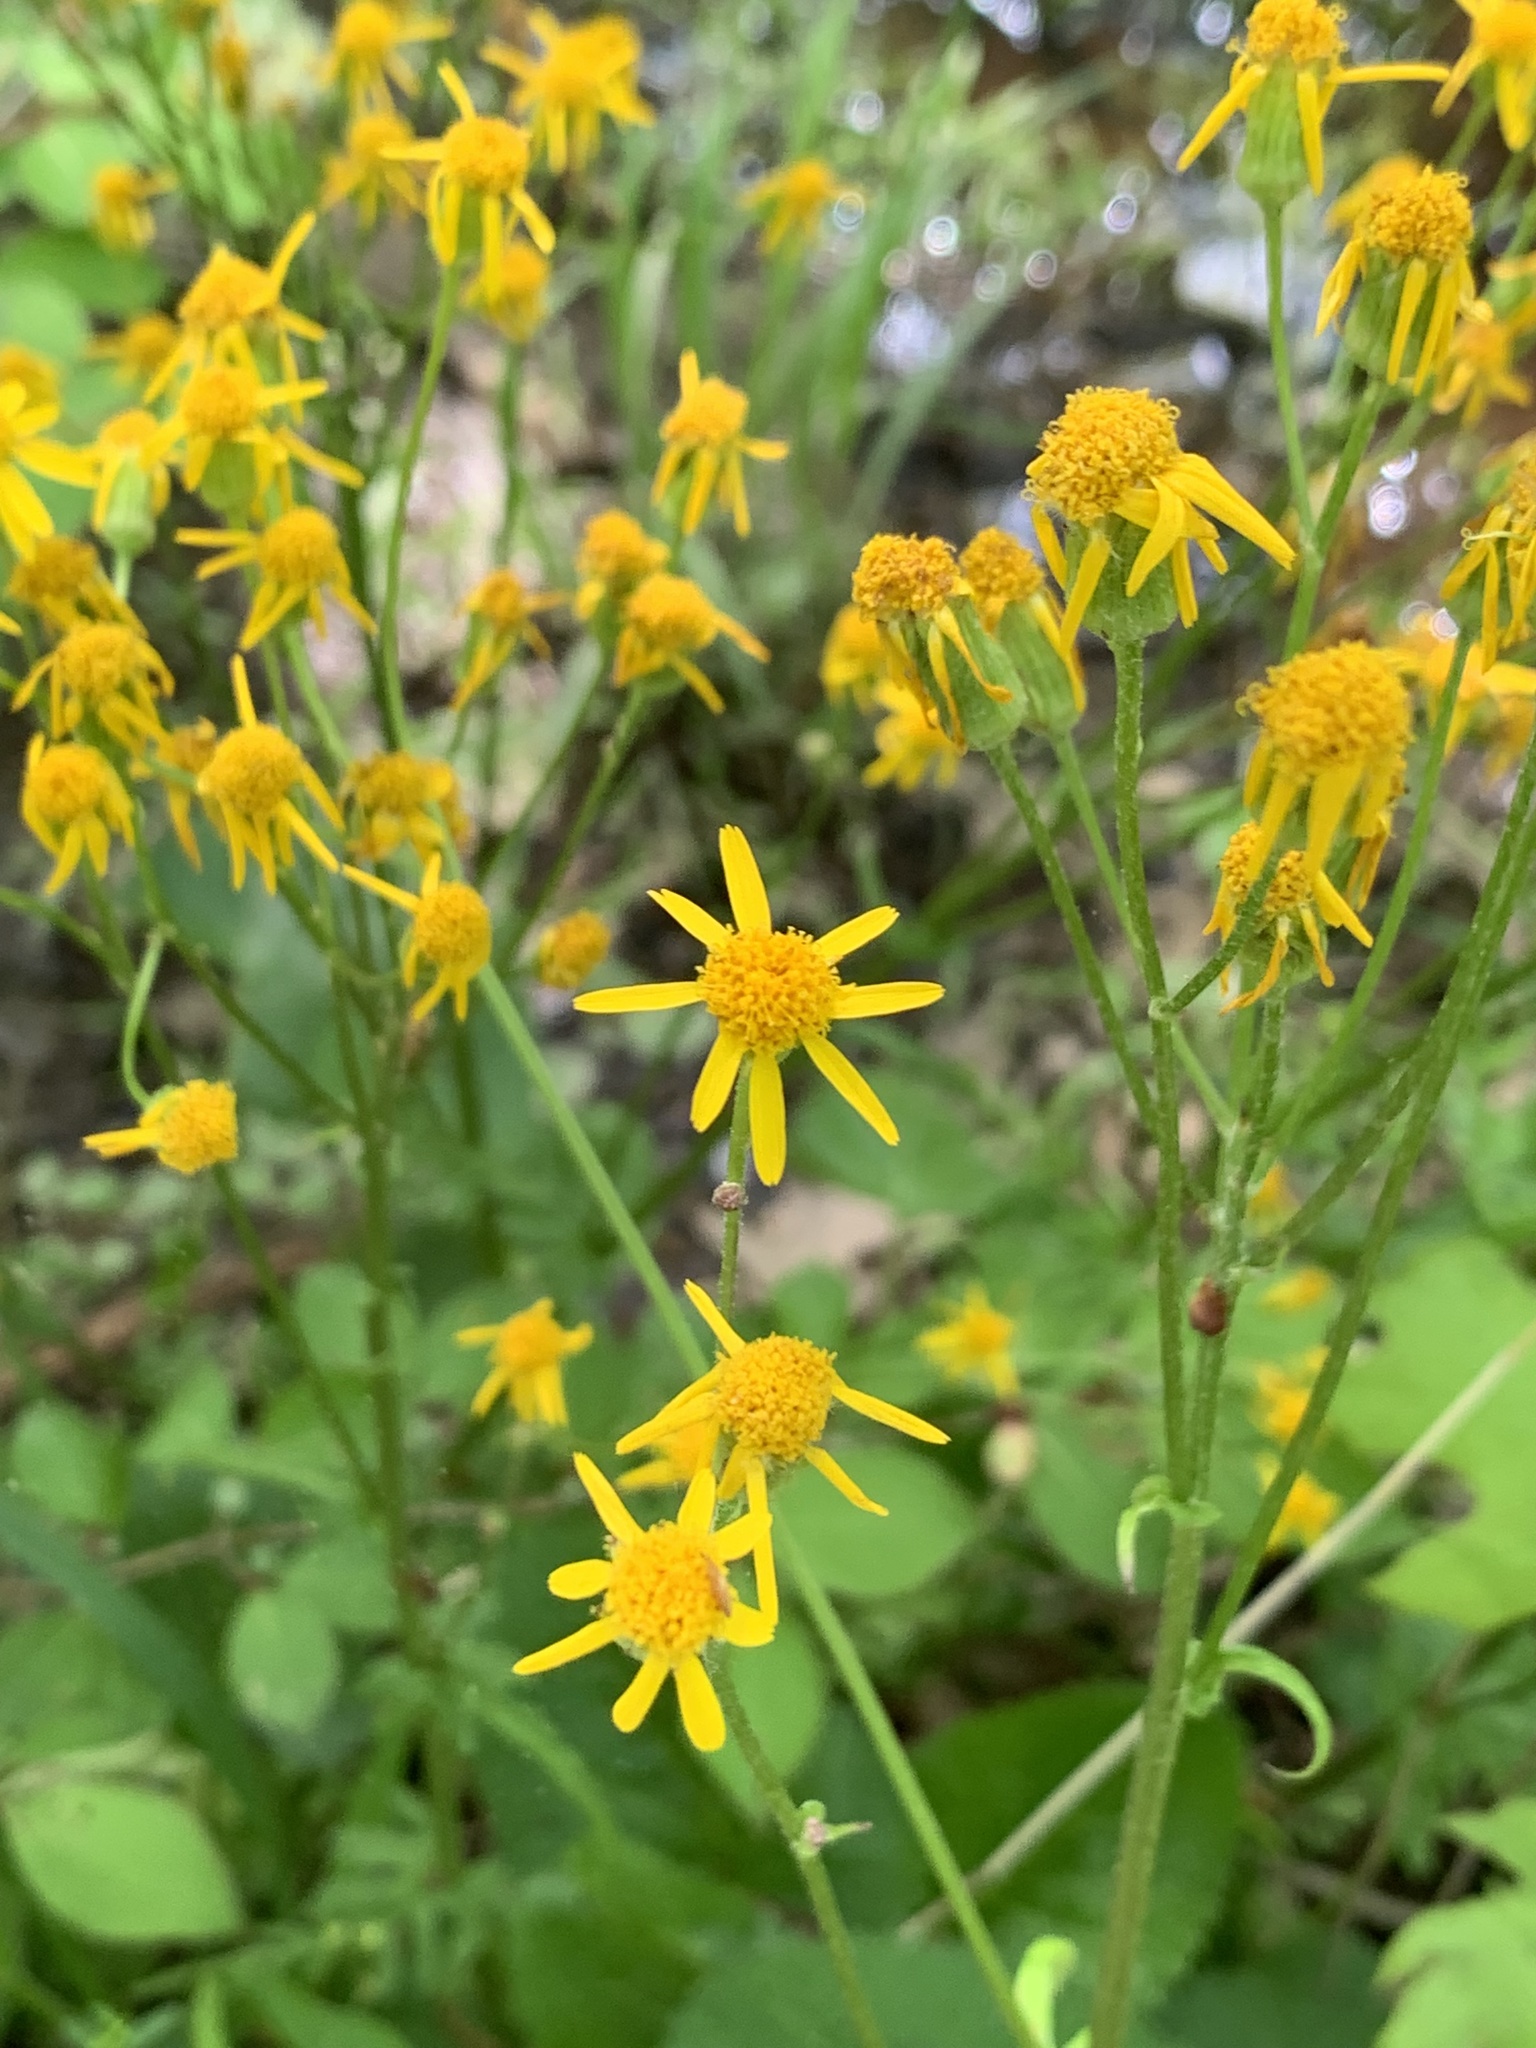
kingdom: Plantae
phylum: Tracheophyta
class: Magnoliopsida
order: Asterales
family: Asteraceae
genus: Packera
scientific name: Packera aurea
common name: Golden groundsel
